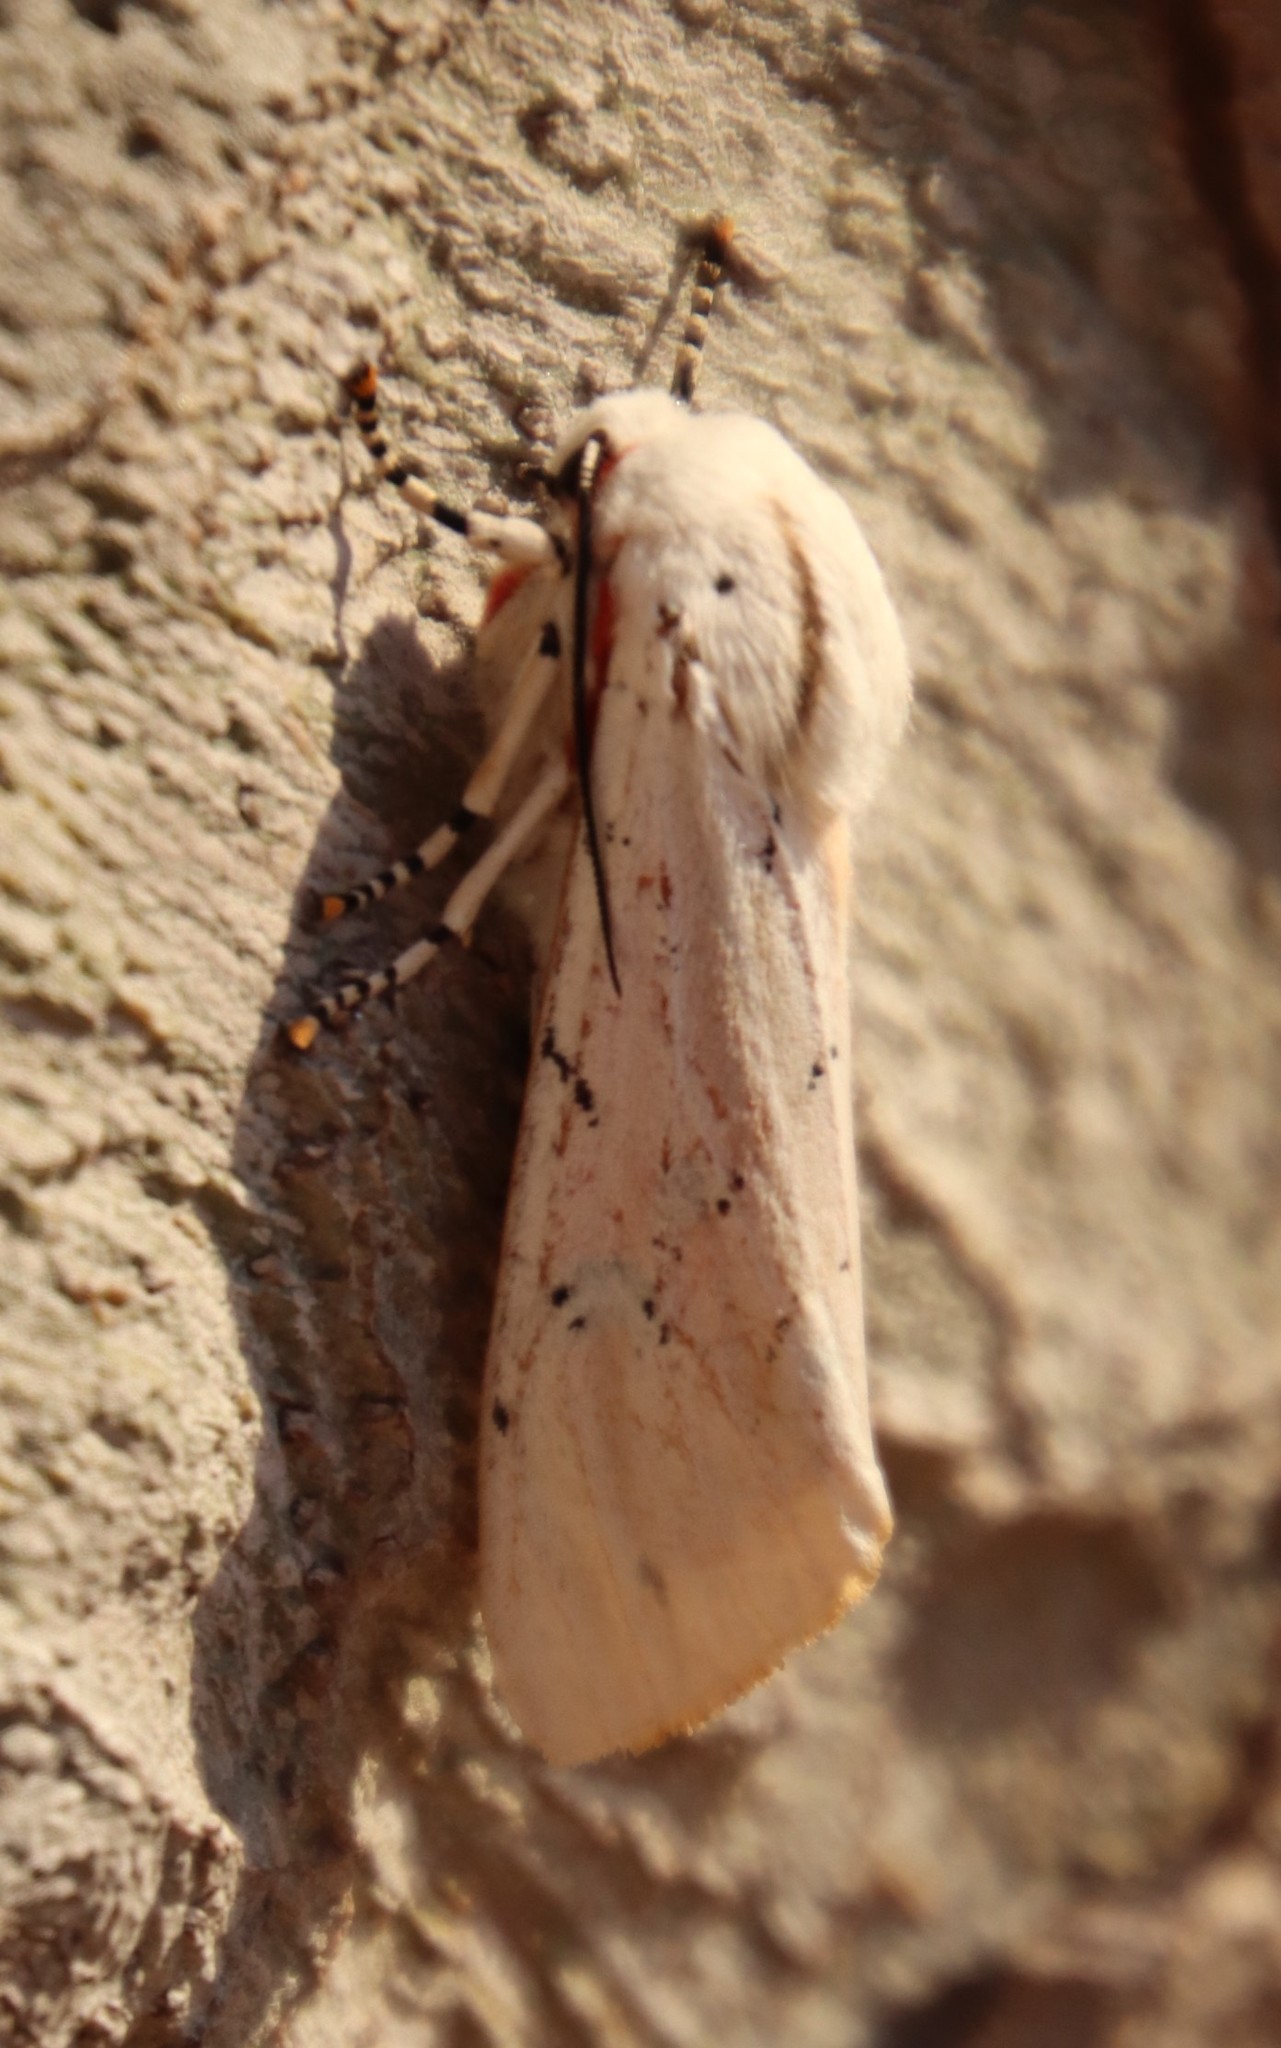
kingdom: Animalia
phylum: Arthropoda
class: Insecta
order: Lepidoptera
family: Erebidae
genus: Rhodogastria
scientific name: Rhodogastria amasis
